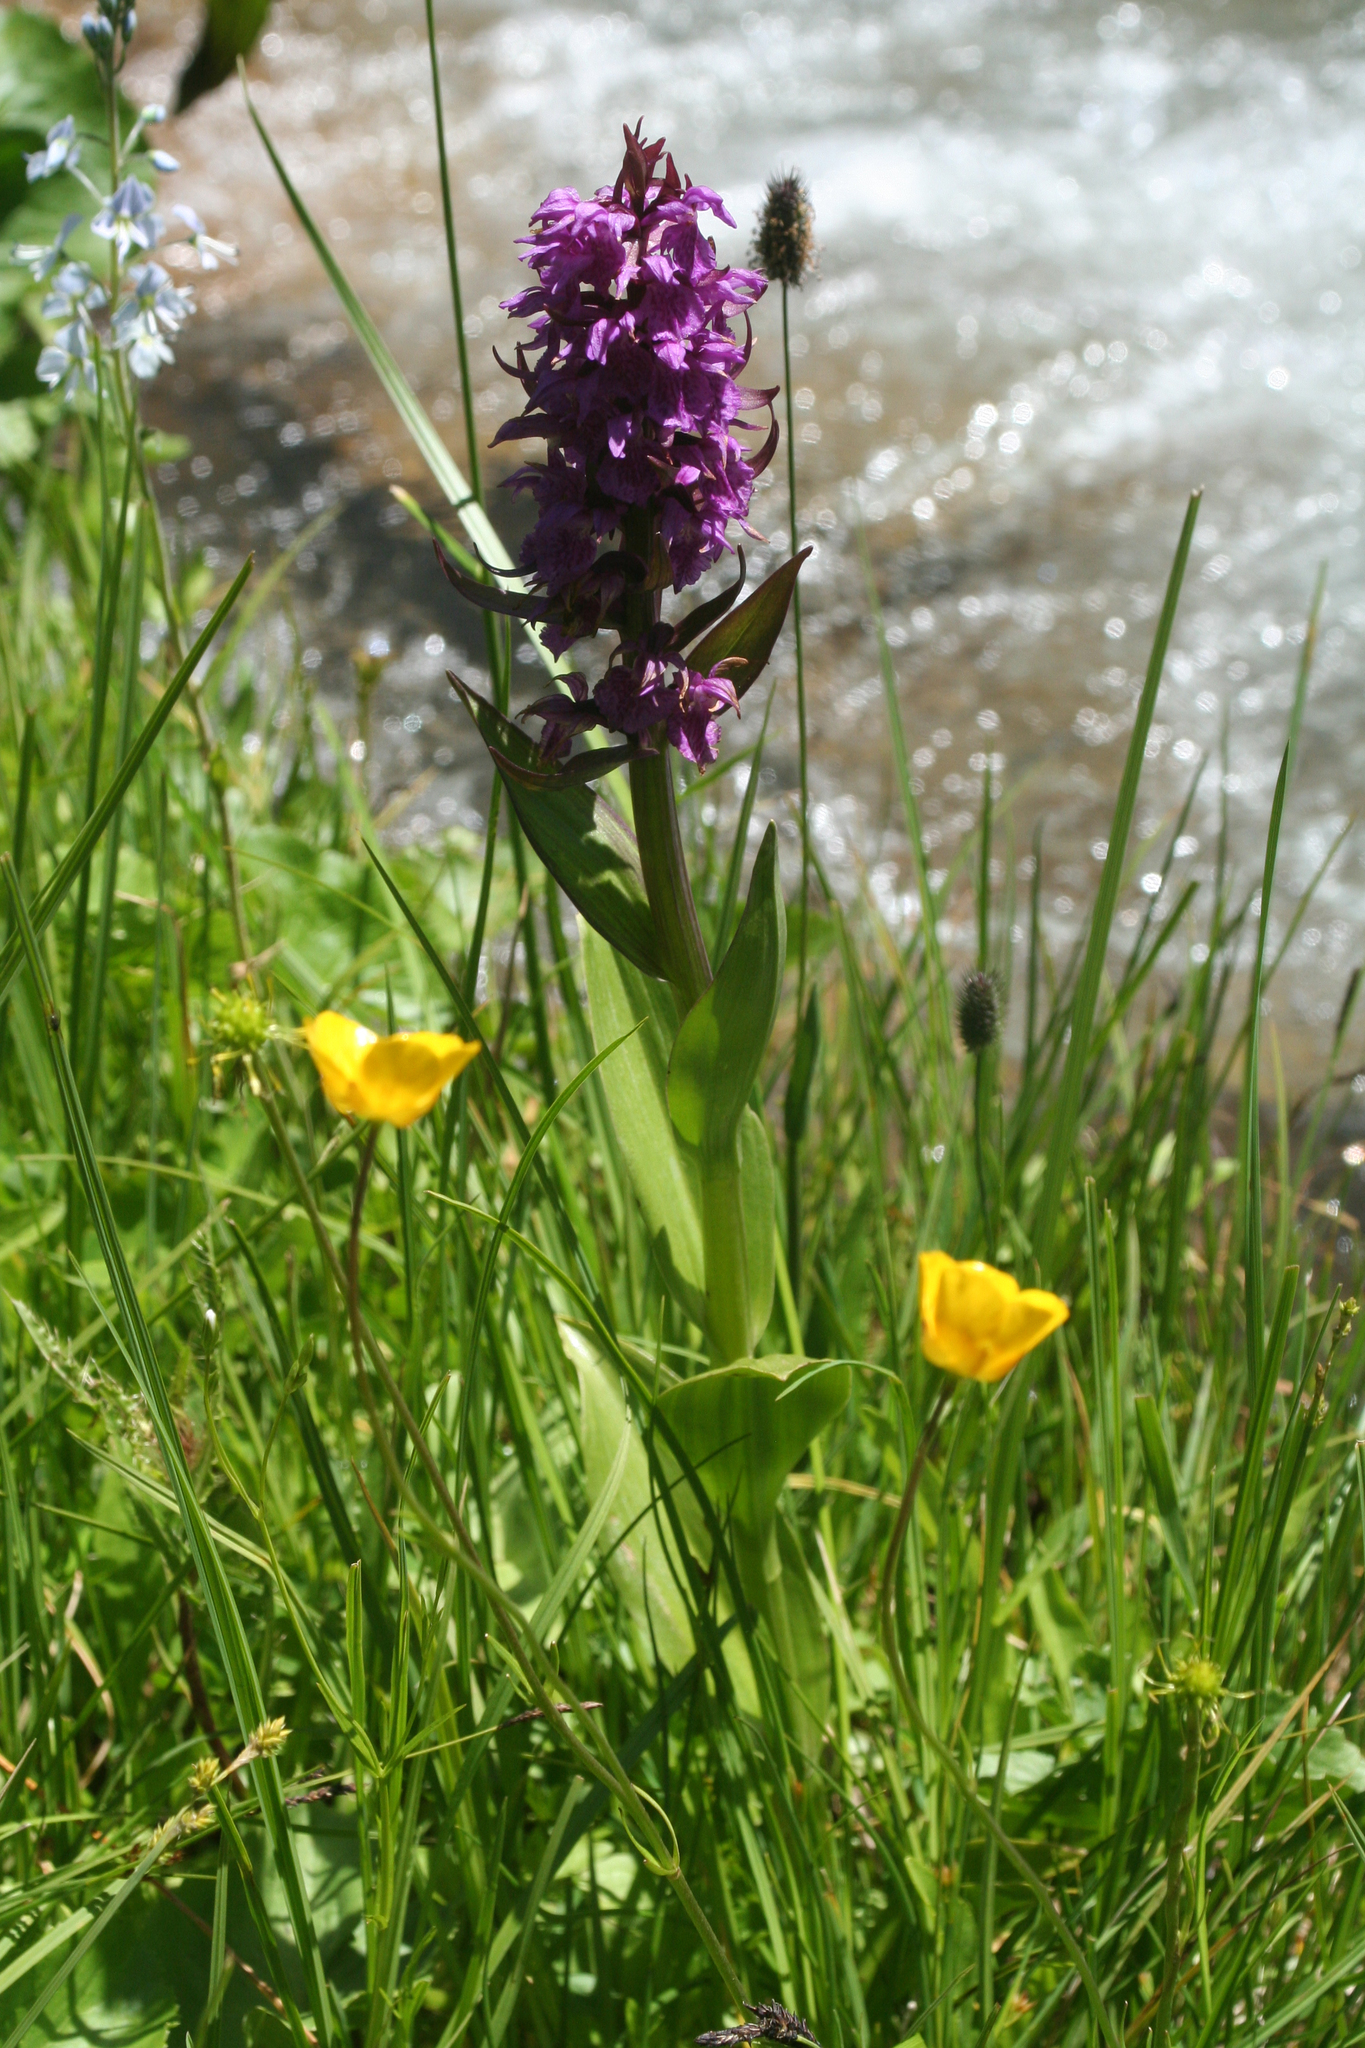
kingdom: Plantae
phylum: Tracheophyta
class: Liliopsida
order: Asparagales
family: Orchidaceae
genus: Dactylorhiza
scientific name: Dactylorhiza euxina
